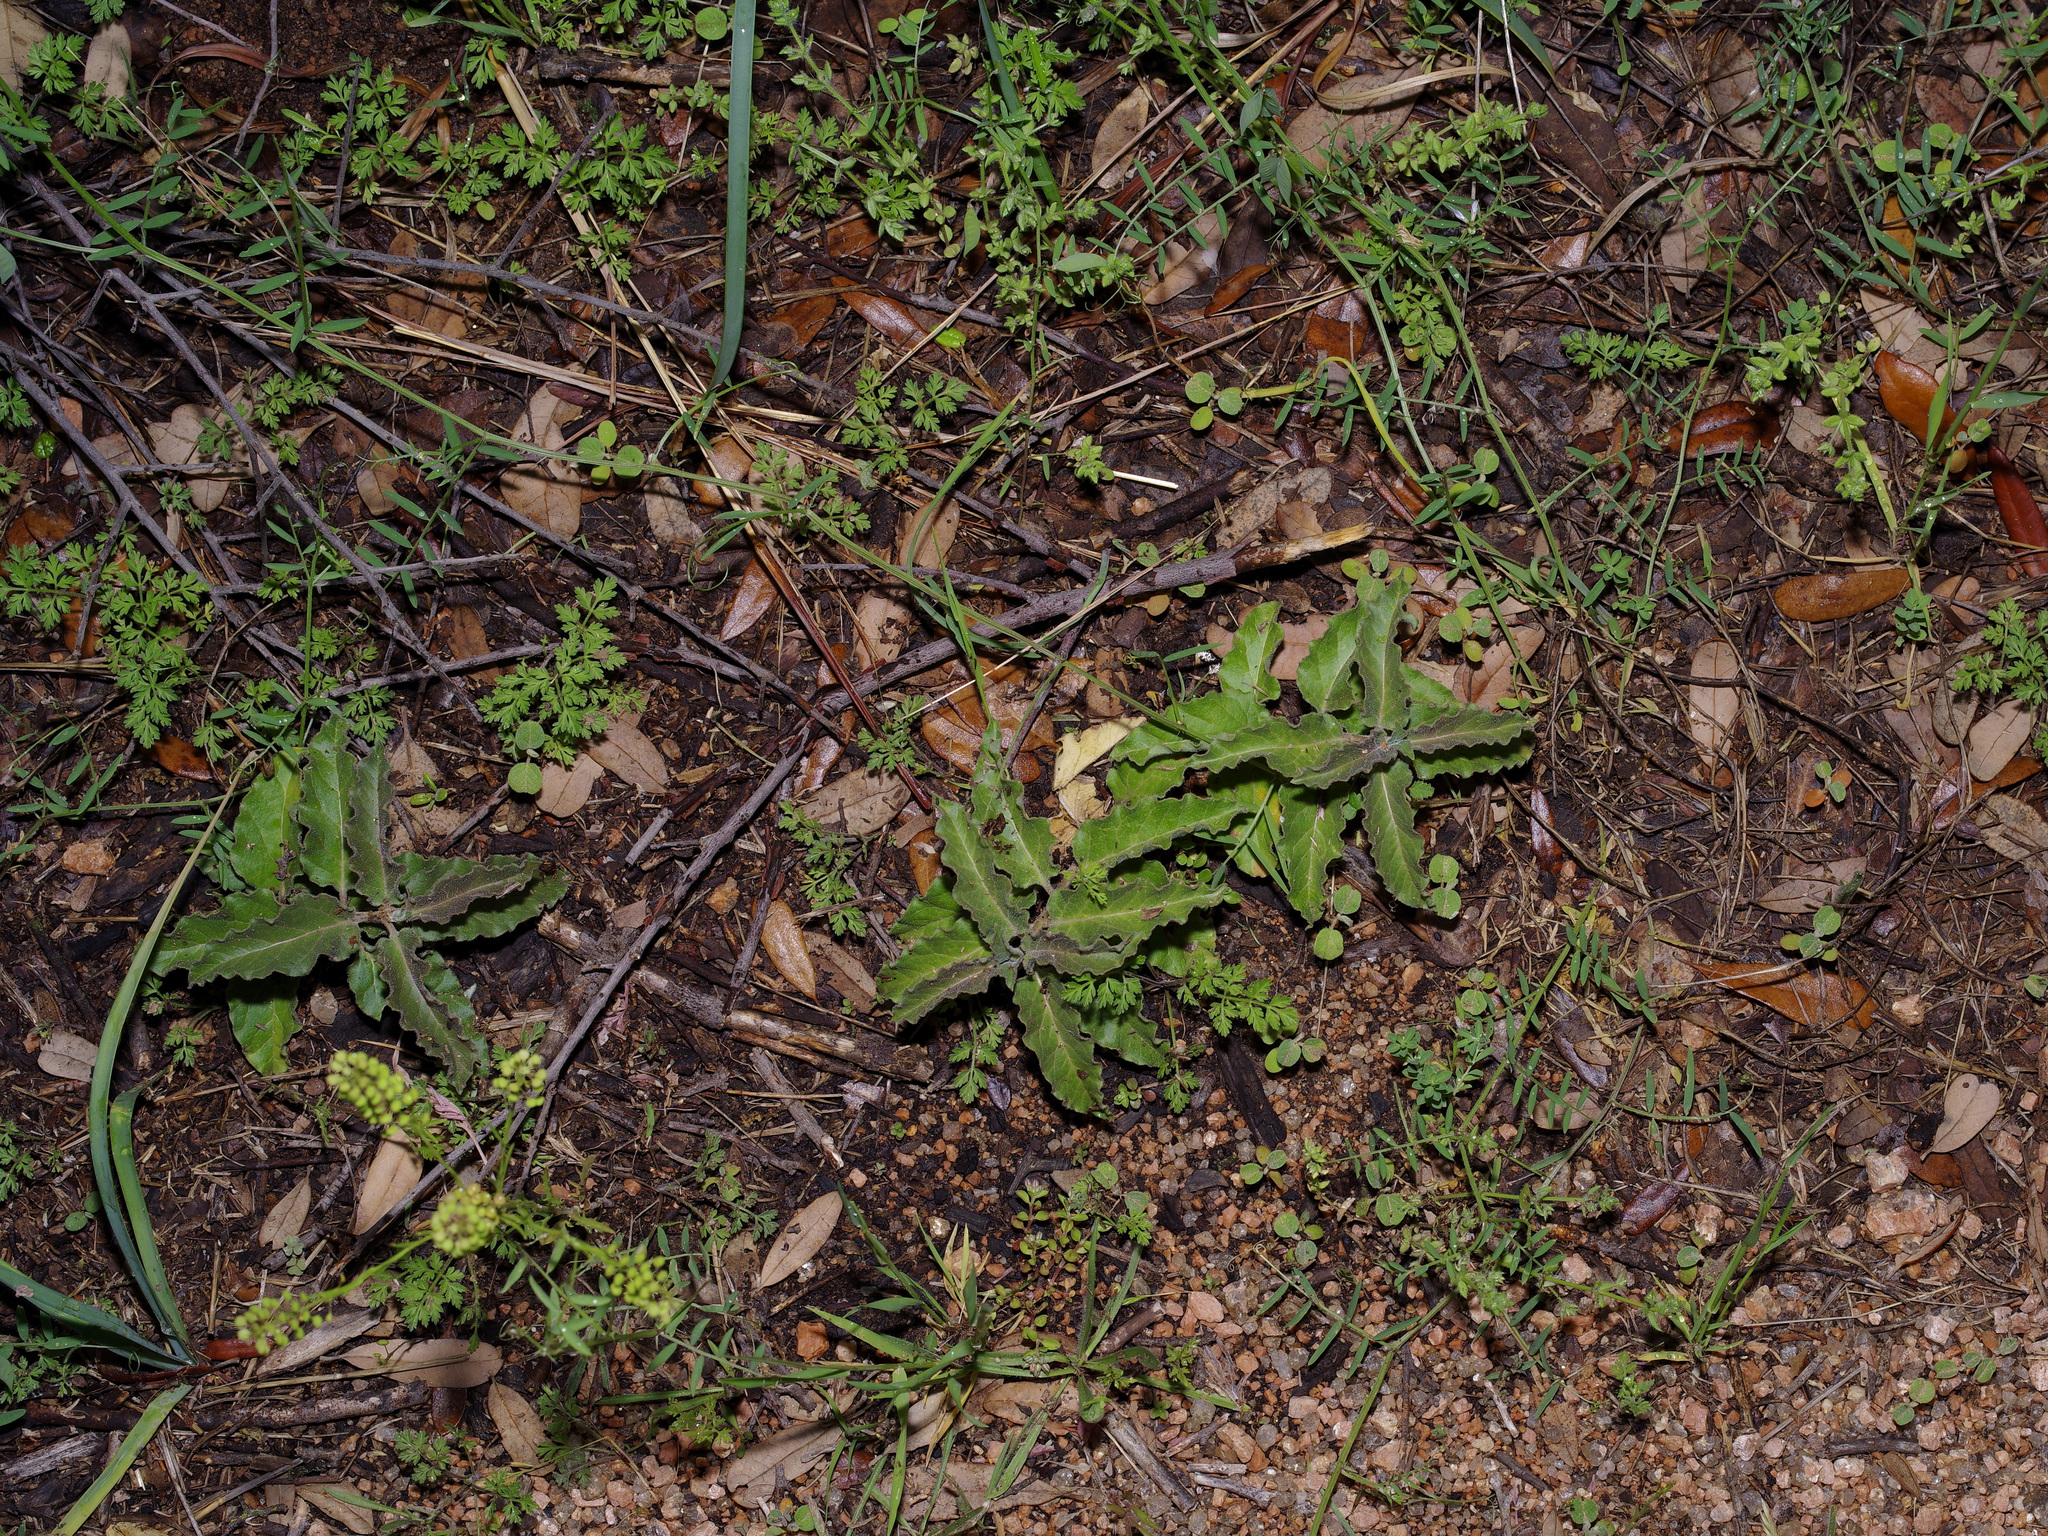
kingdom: Plantae
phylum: Tracheophyta
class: Magnoliopsida
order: Gentianales
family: Apocynaceae
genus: Asclepias
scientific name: Asclepias oenotheroides
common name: Zizotes milkweed
